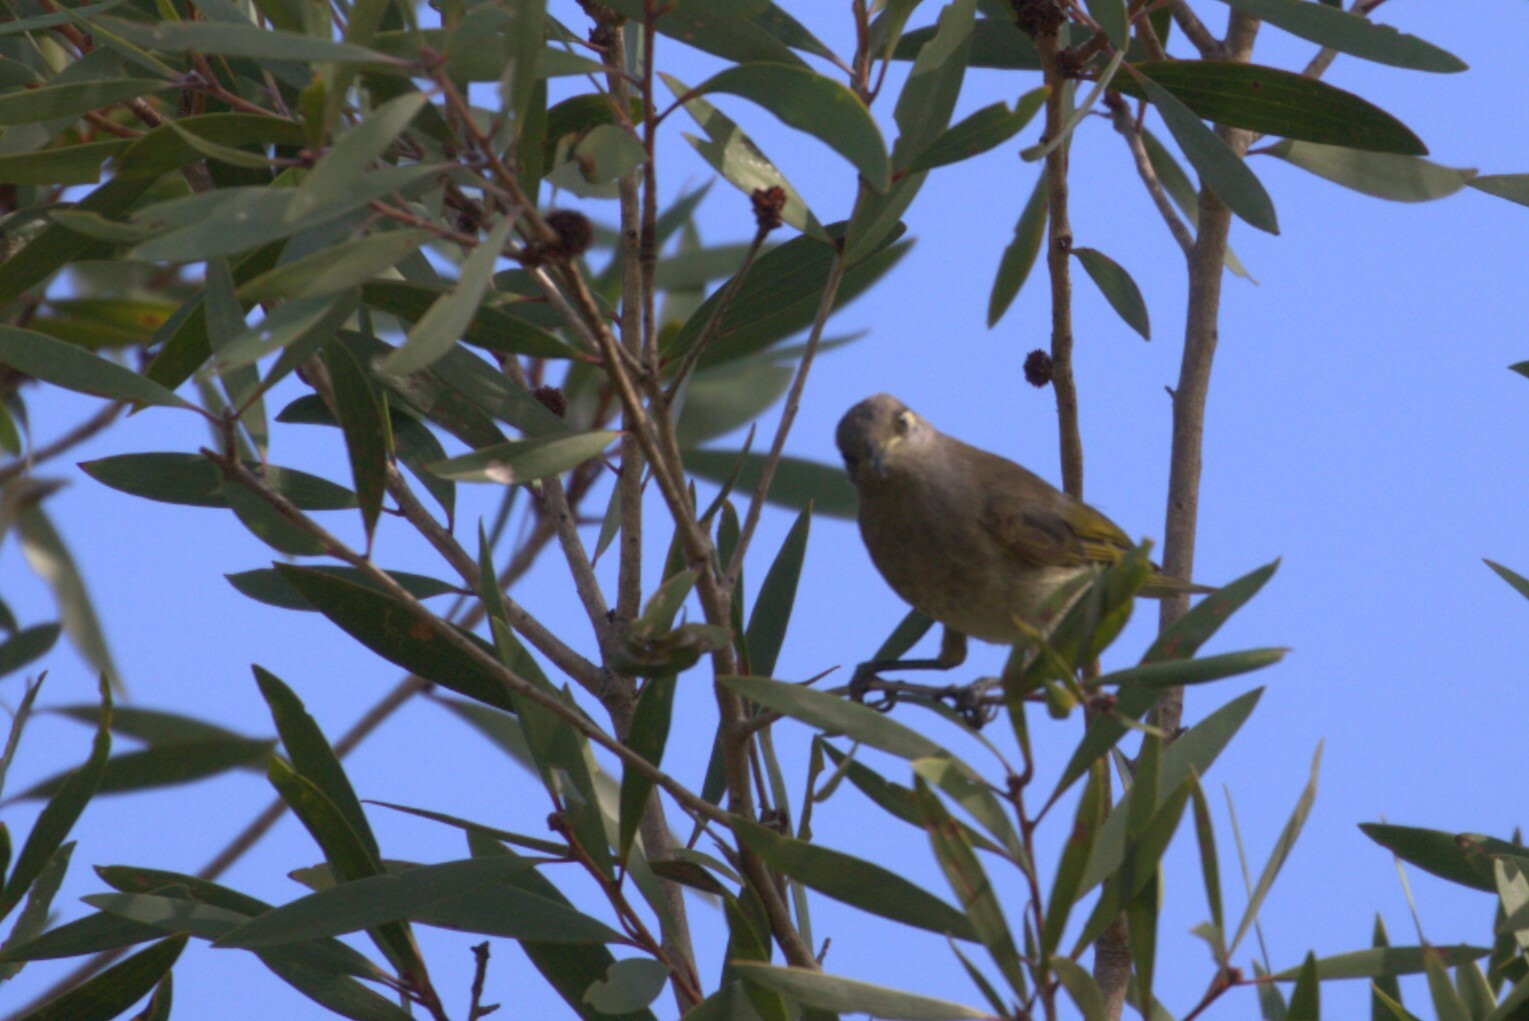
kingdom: Animalia
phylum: Chordata
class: Aves
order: Passeriformes
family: Meliphagidae
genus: Lichmera
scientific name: Lichmera indistincta
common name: Brown honeyeater
